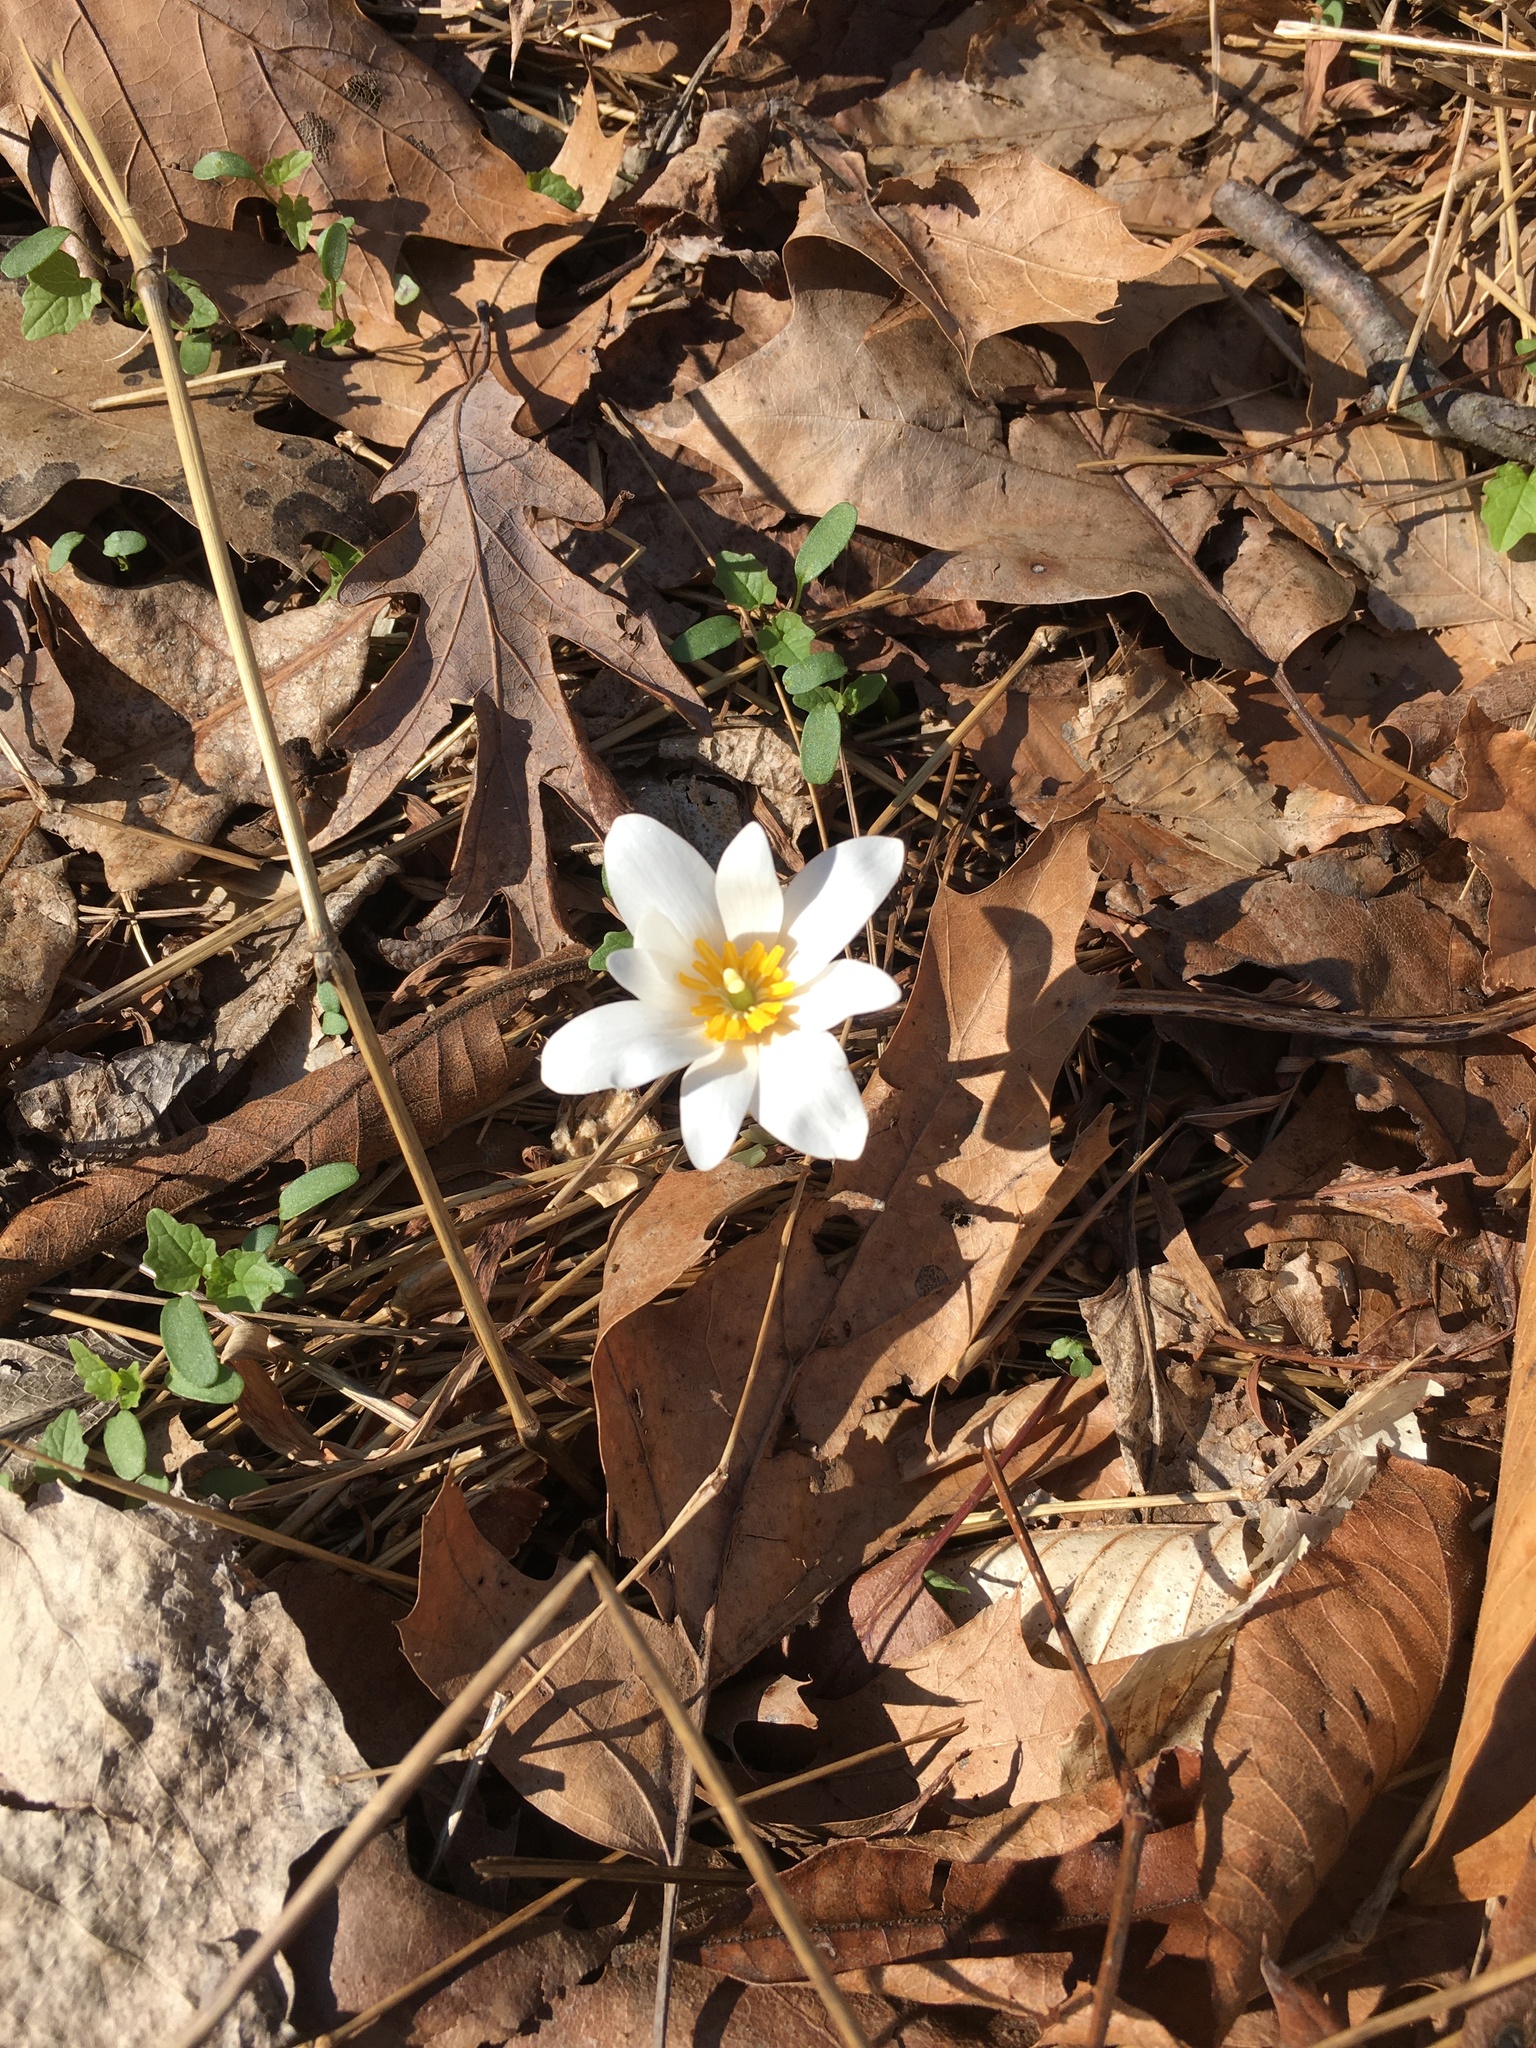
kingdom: Plantae
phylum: Tracheophyta
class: Magnoliopsida
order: Ranunculales
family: Papaveraceae
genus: Sanguinaria
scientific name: Sanguinaria canadensis
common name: Bloodroot
